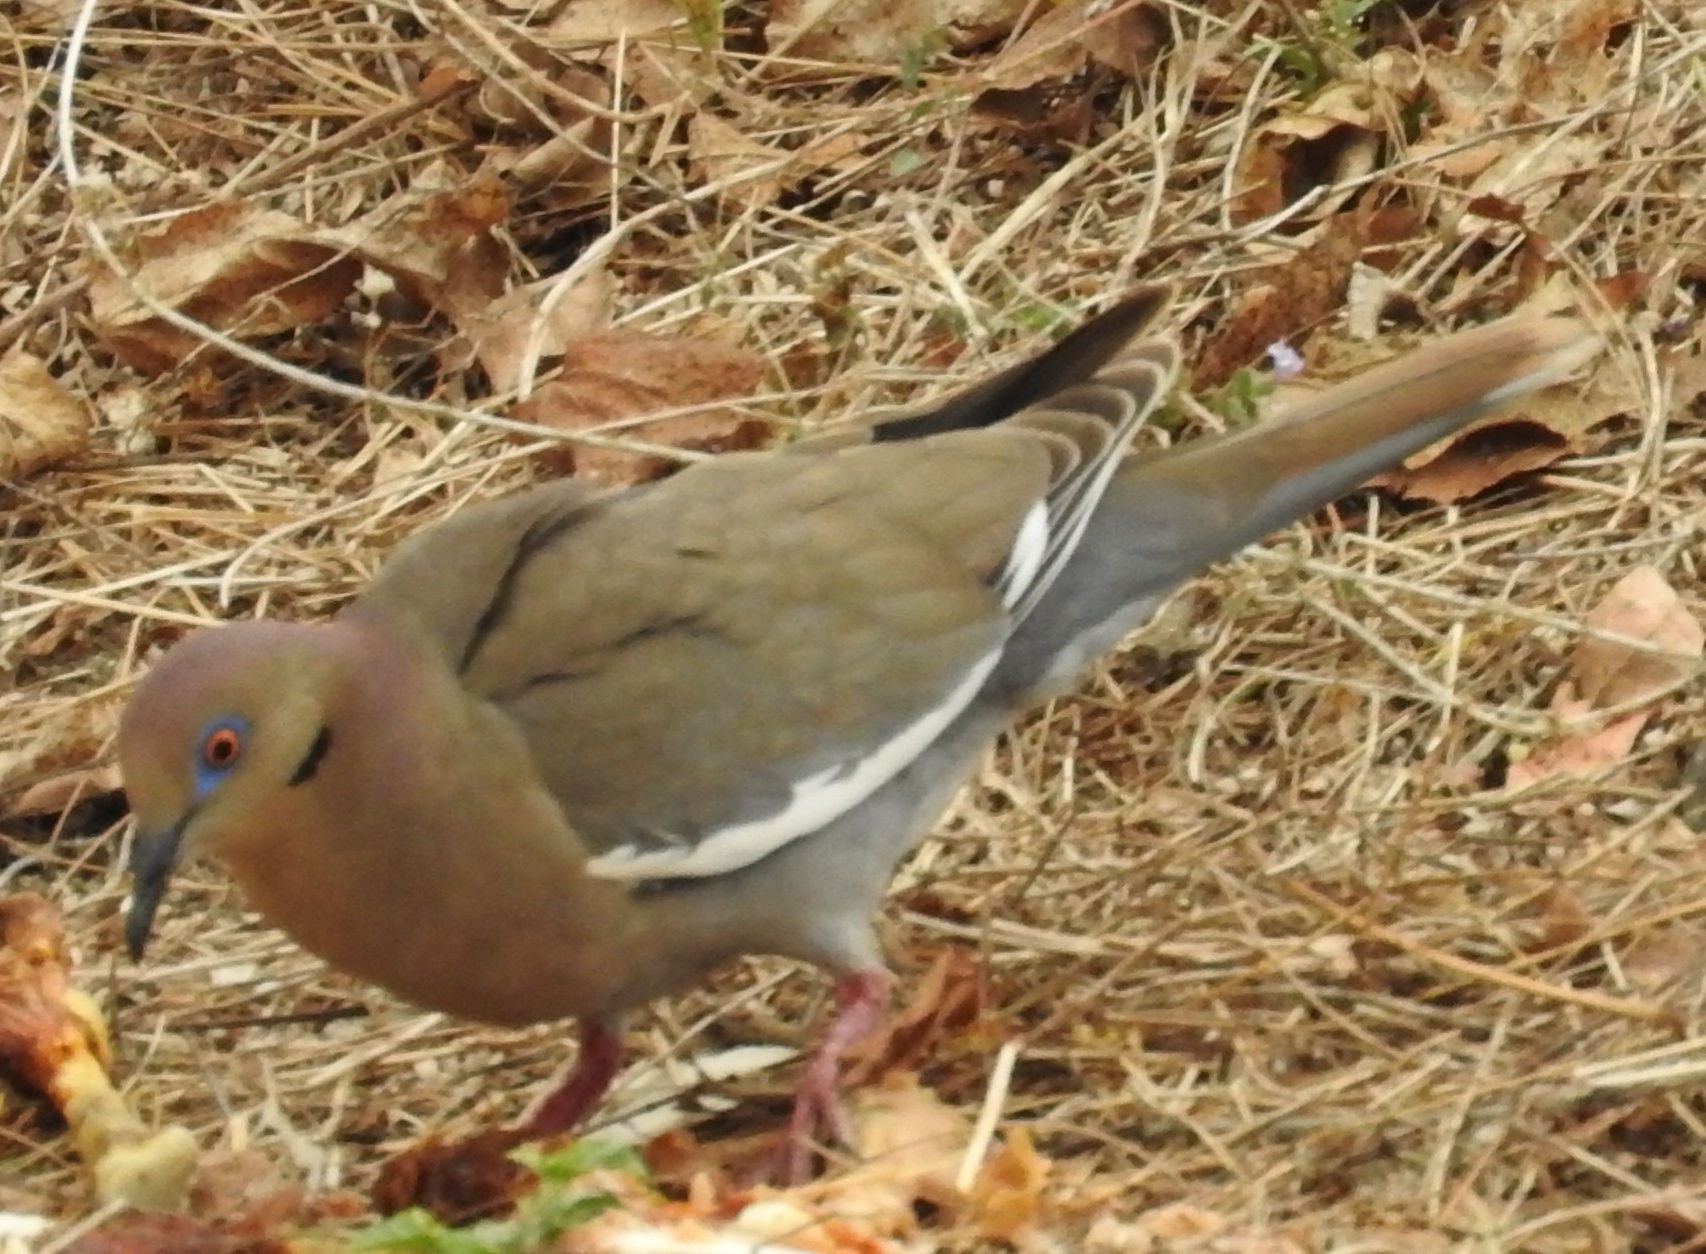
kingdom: Animalia
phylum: Chordata
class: Aves
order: Columbiformes
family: Columbidae
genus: Zenaida
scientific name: Zenaida asiatica
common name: White-winged dove
